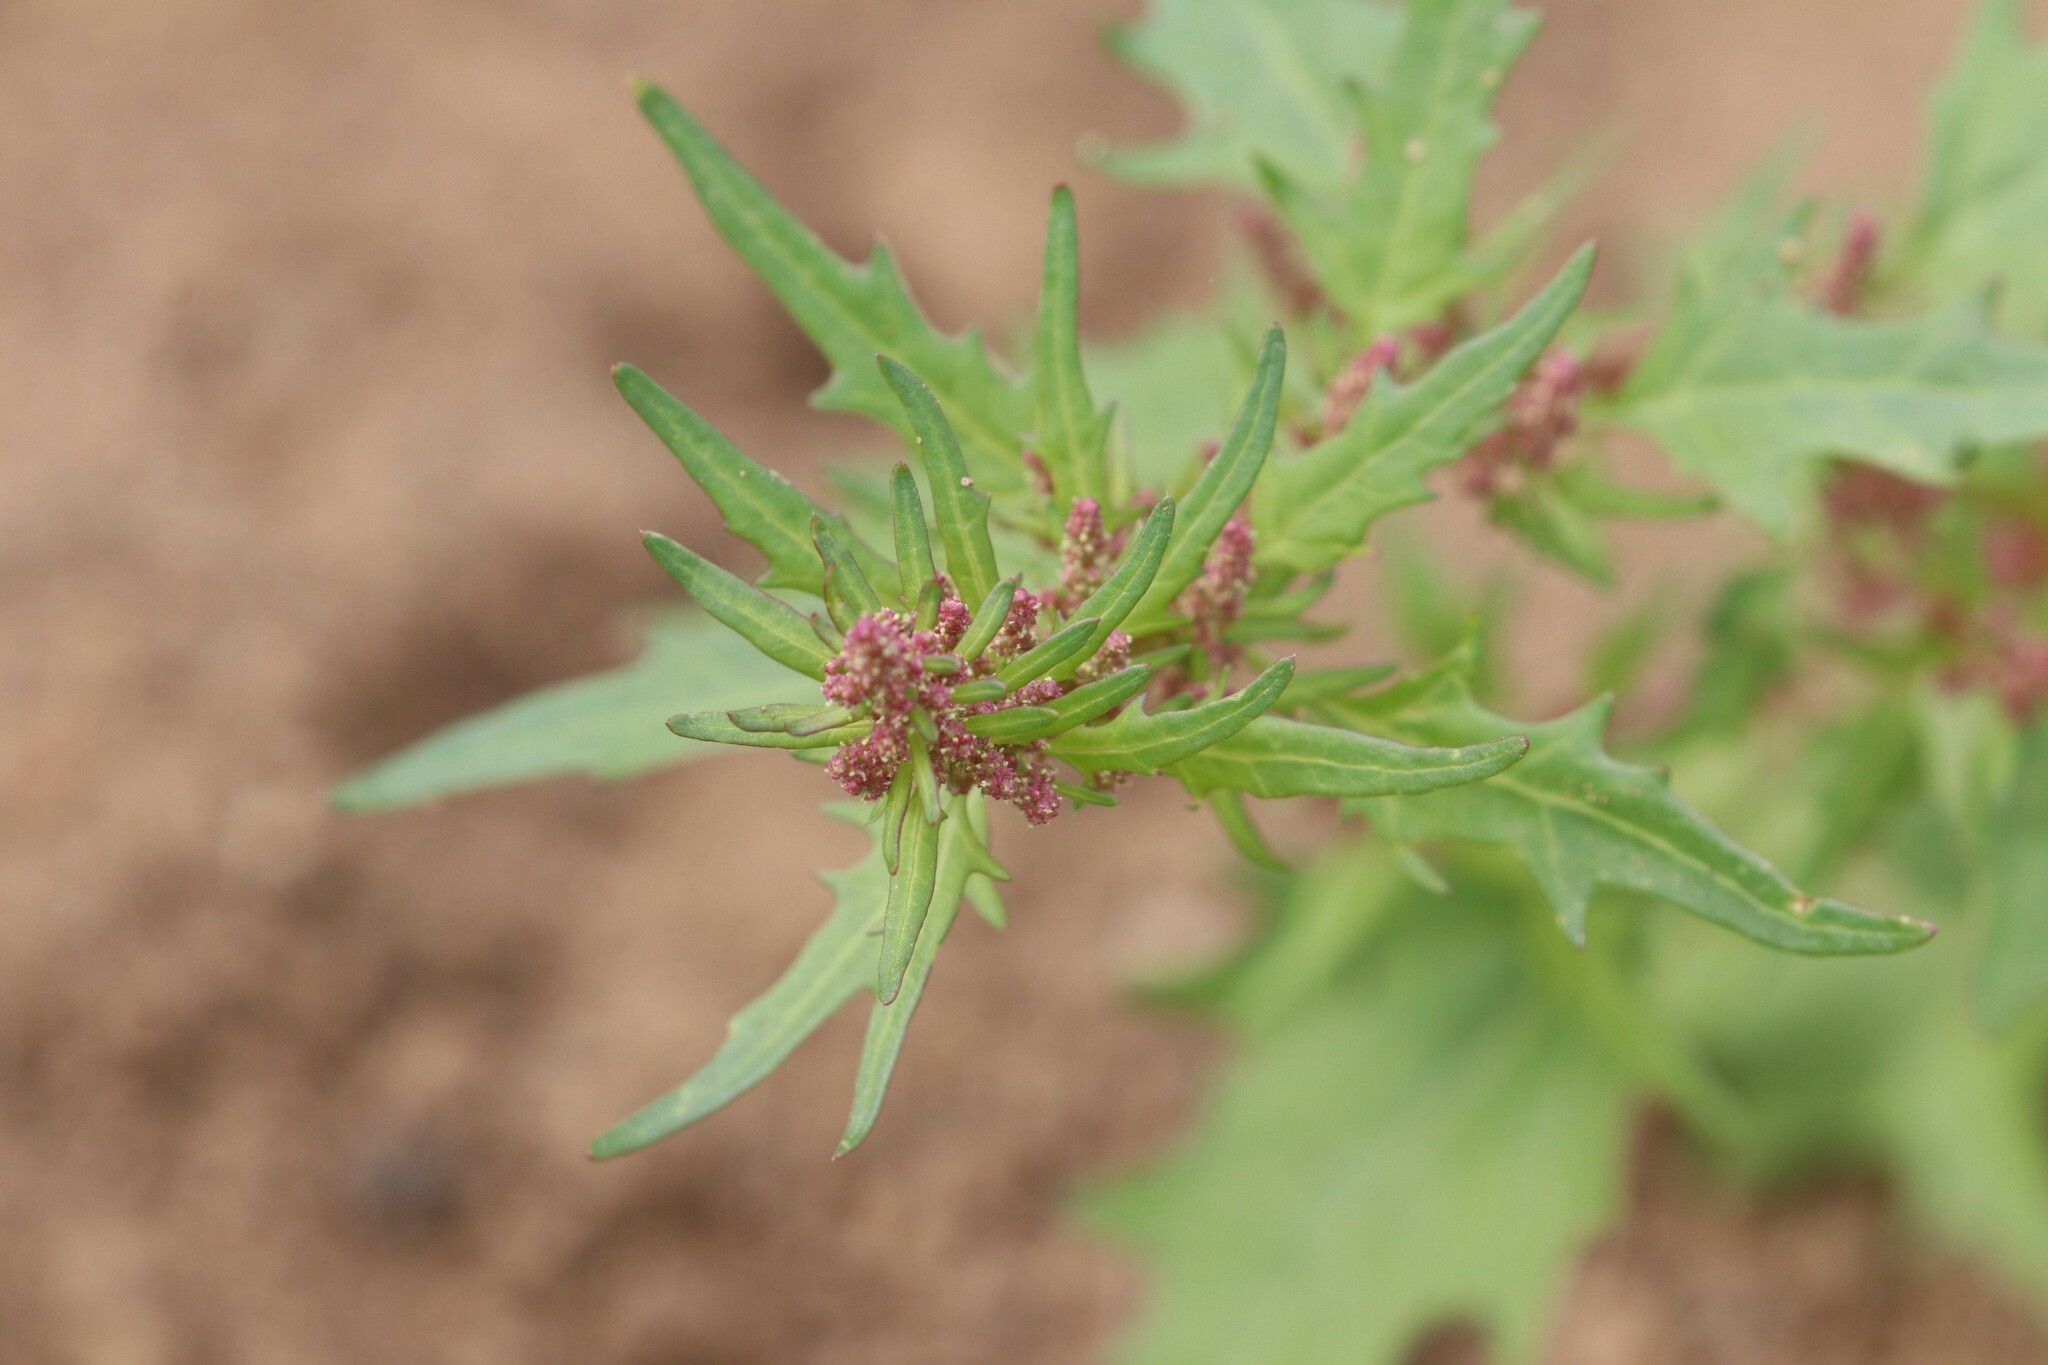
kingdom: Plantae
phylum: Tracheophyta
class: Magnoliopsida
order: Caryophyllales
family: Amaranthaceae
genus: Oxybasis
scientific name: Oxybasis rubra
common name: Red goosefoot
